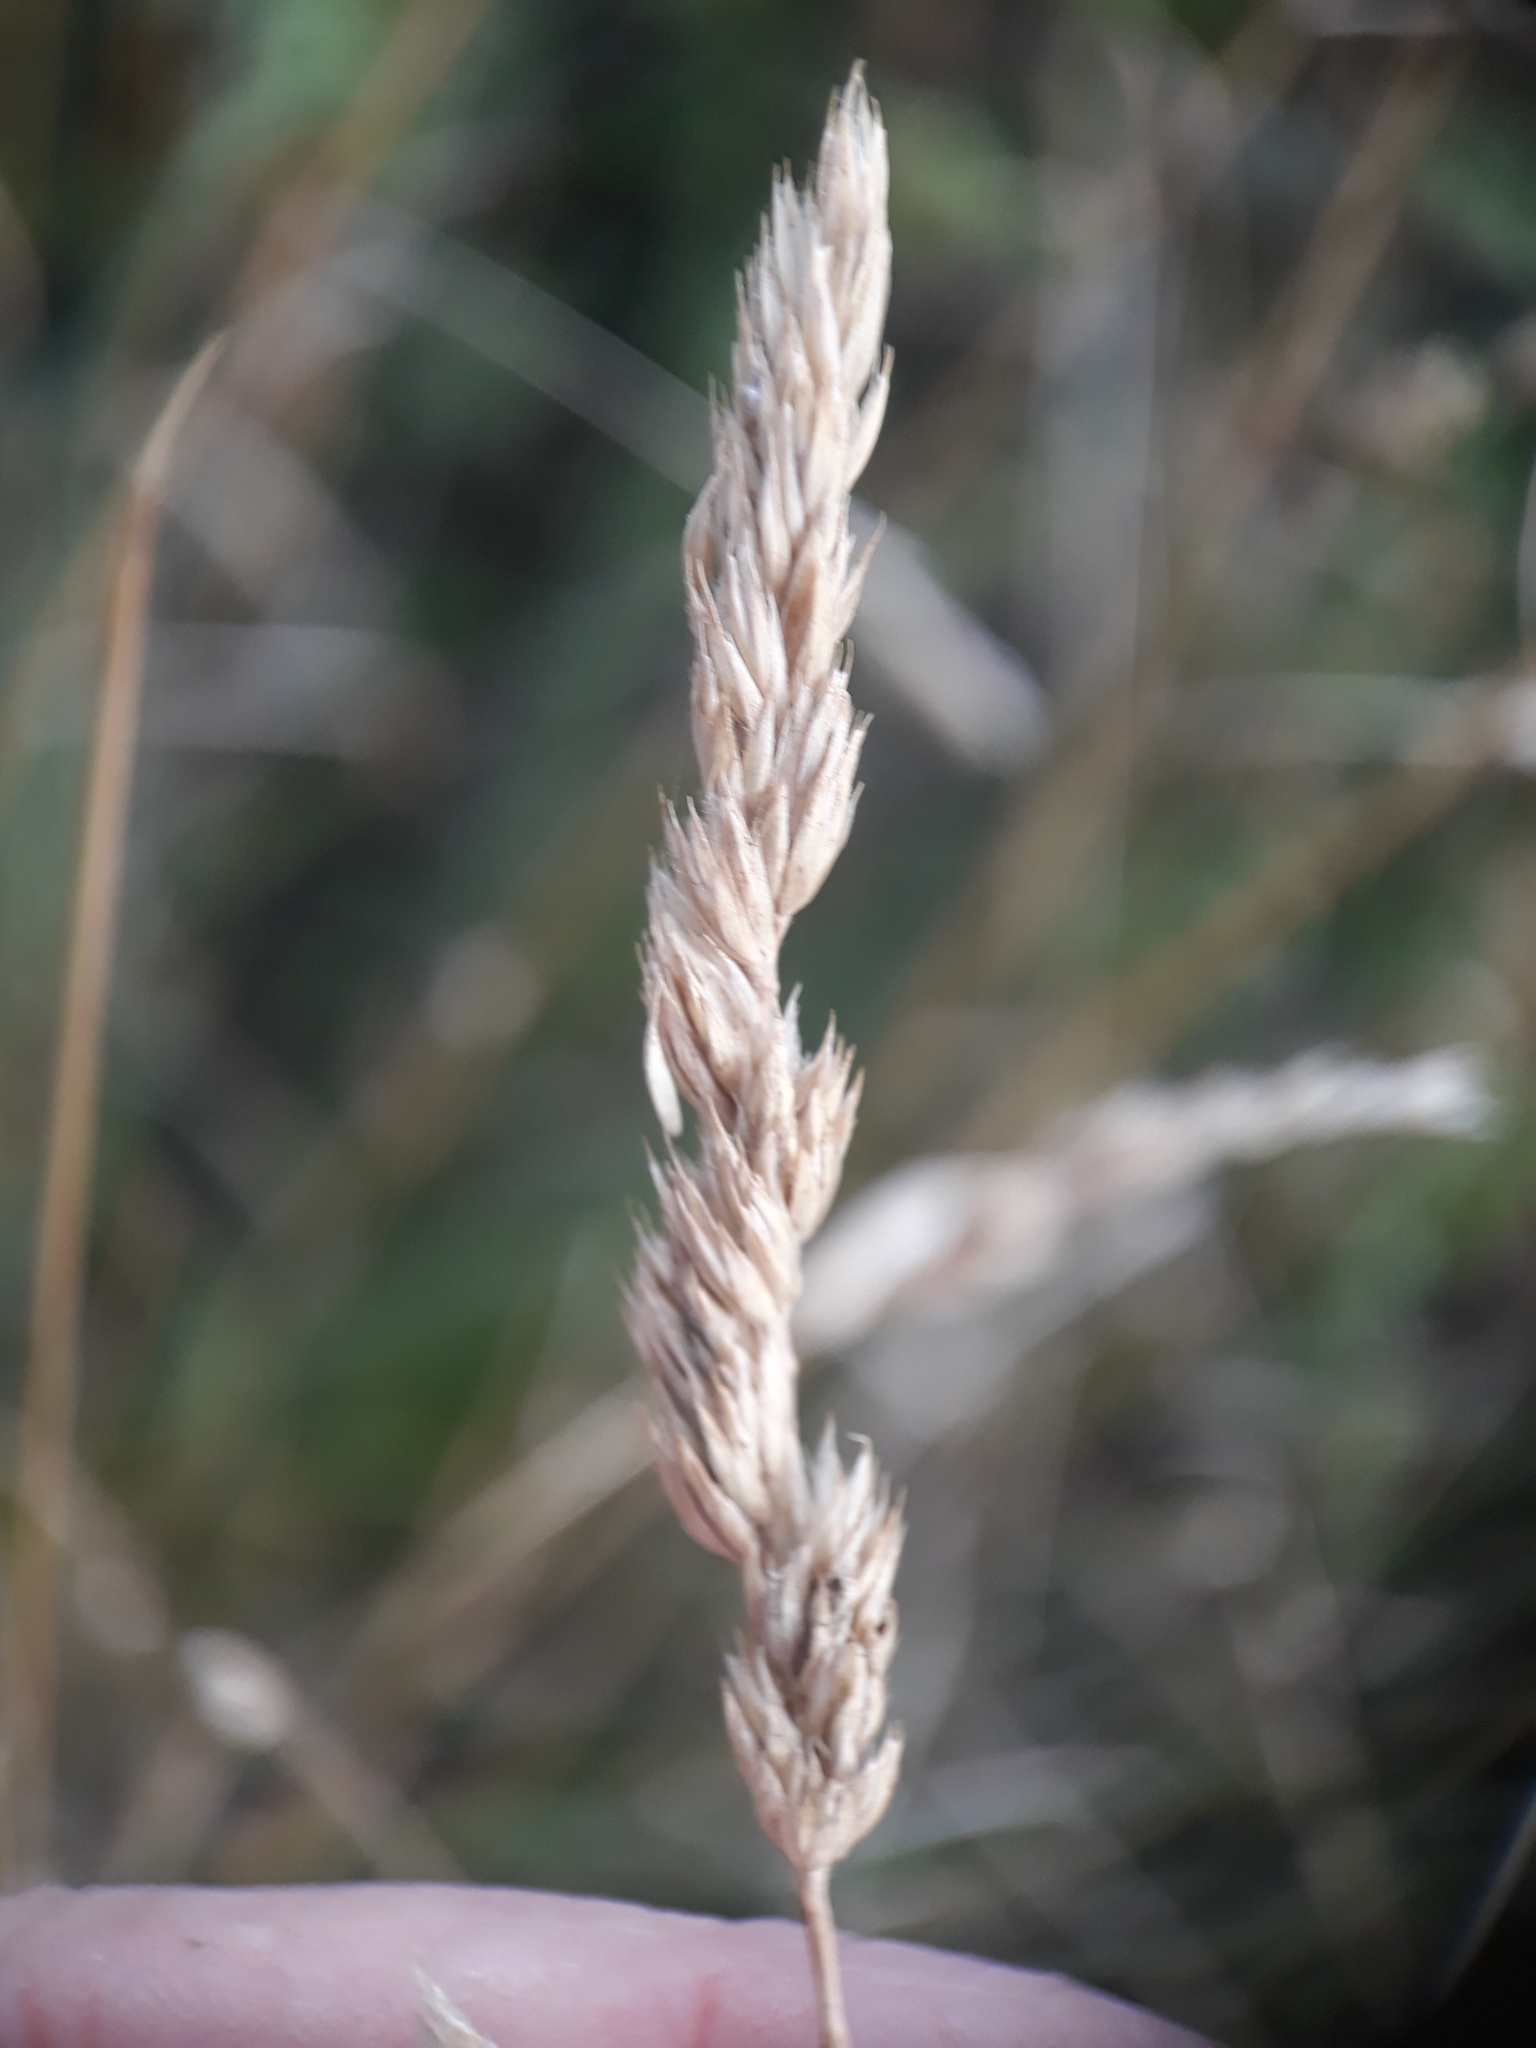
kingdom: Plantae
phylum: Tracheophyta
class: Liliopsida
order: Poales
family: Poaceae
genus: Dactylis
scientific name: Dactylis glomerata
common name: Orchardgrass
